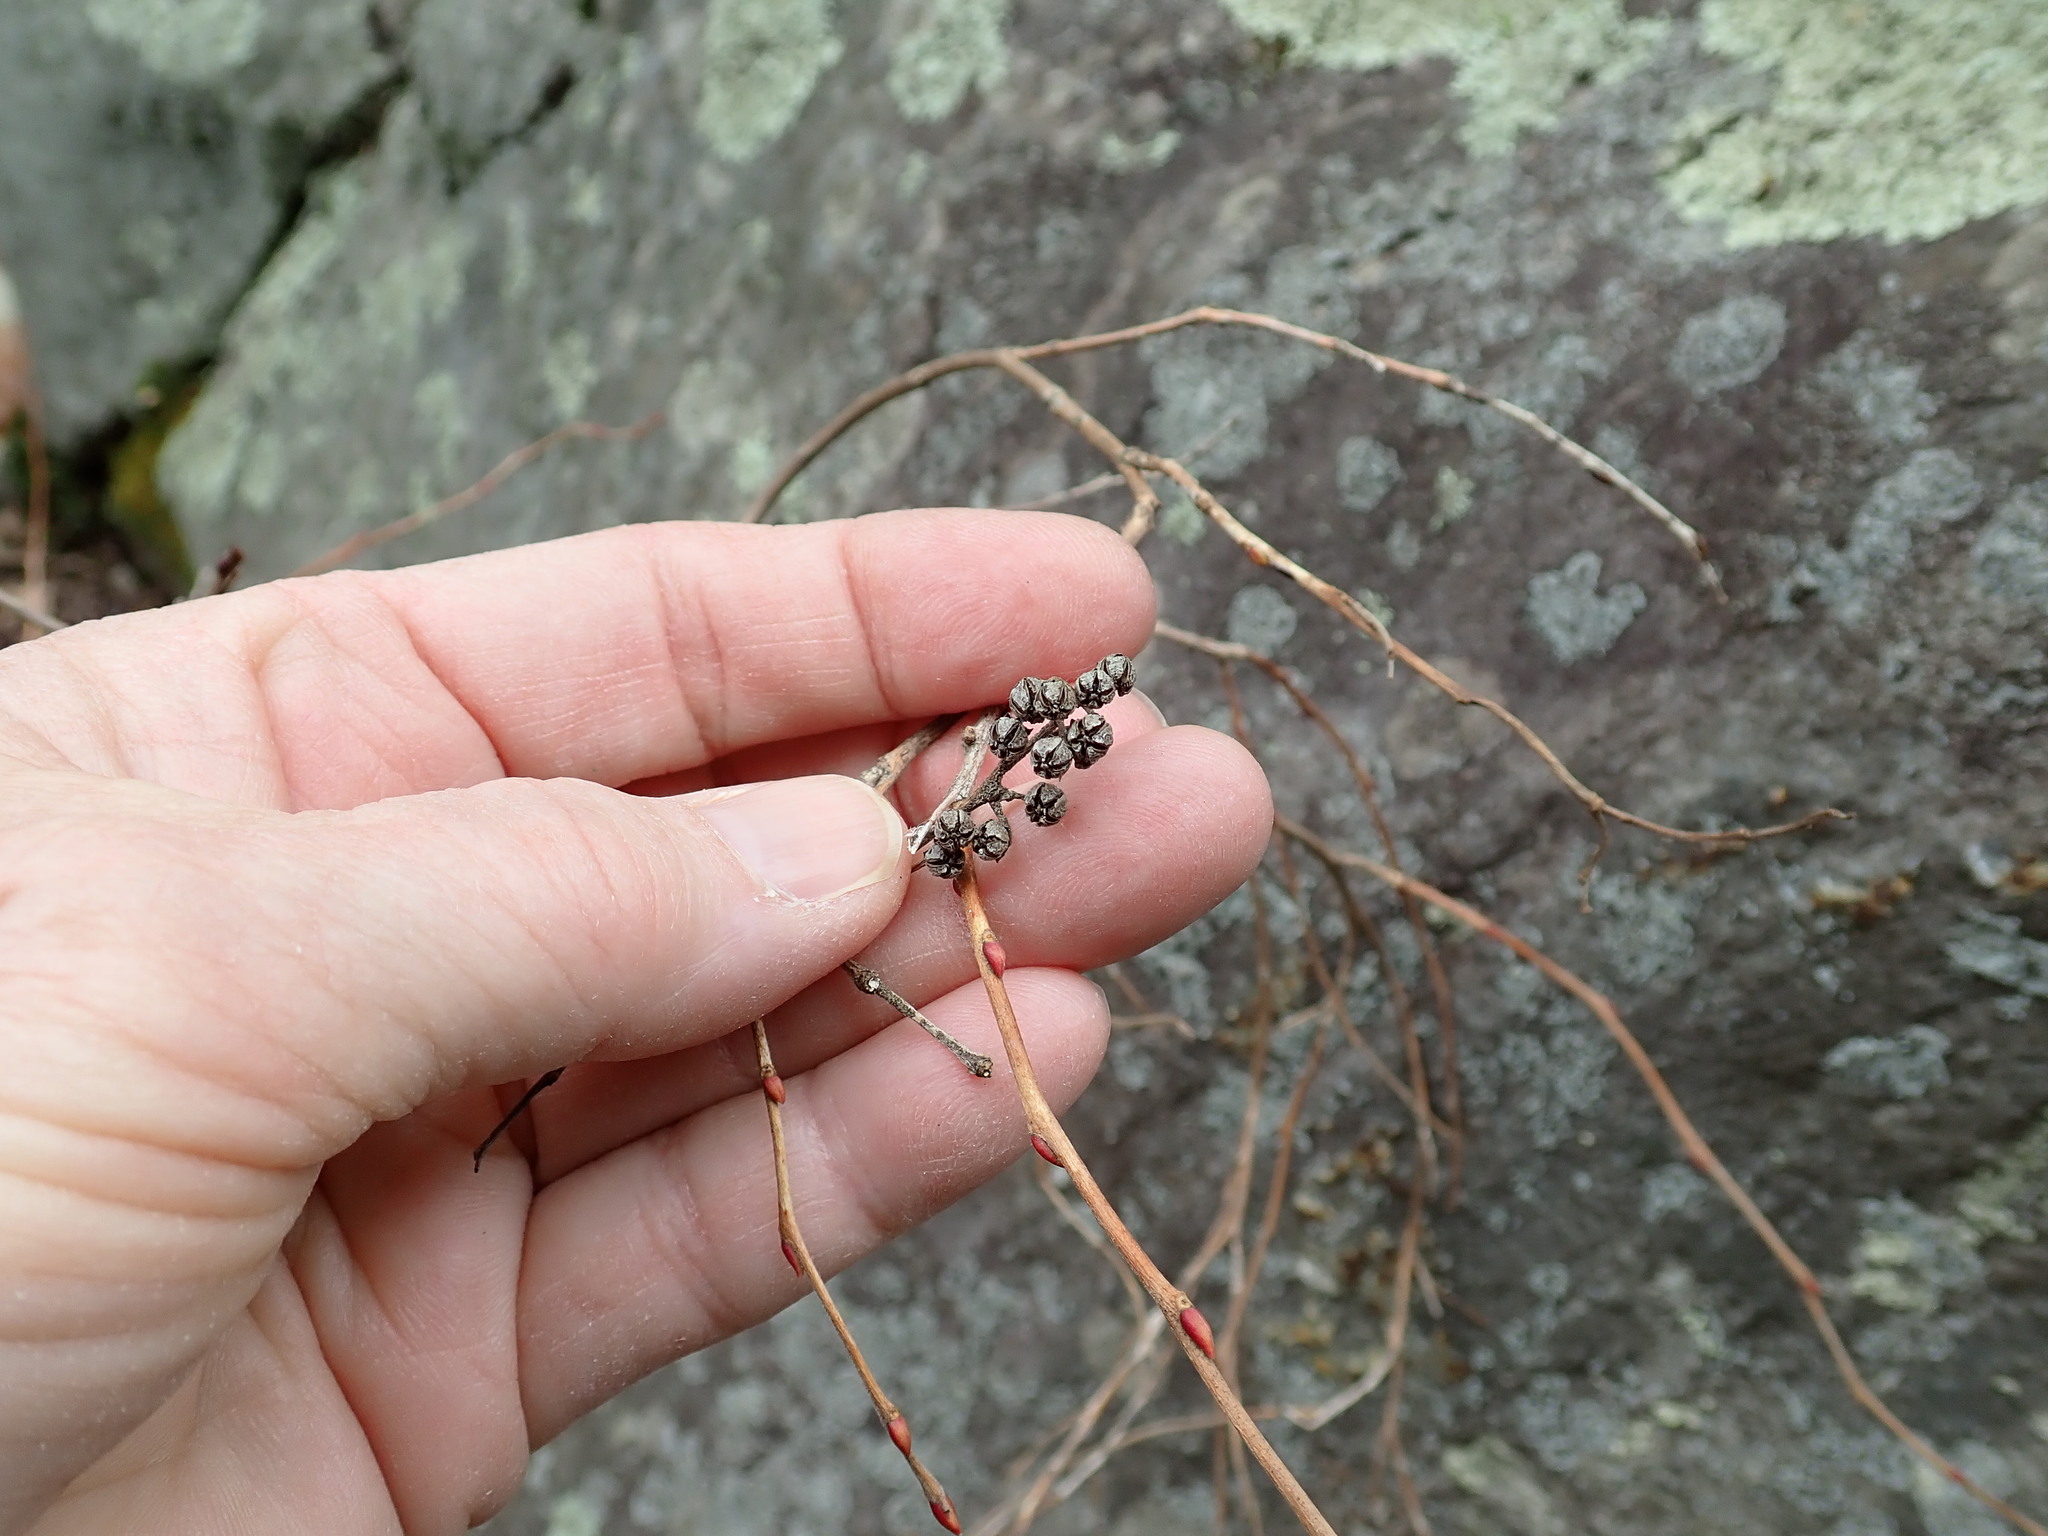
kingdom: Plantae
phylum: Tracheophyta
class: Magnoliopsida
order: Ericales
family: Ericaceae
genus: Lyonia
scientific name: Lyonia ligustrina
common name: Maleberry
